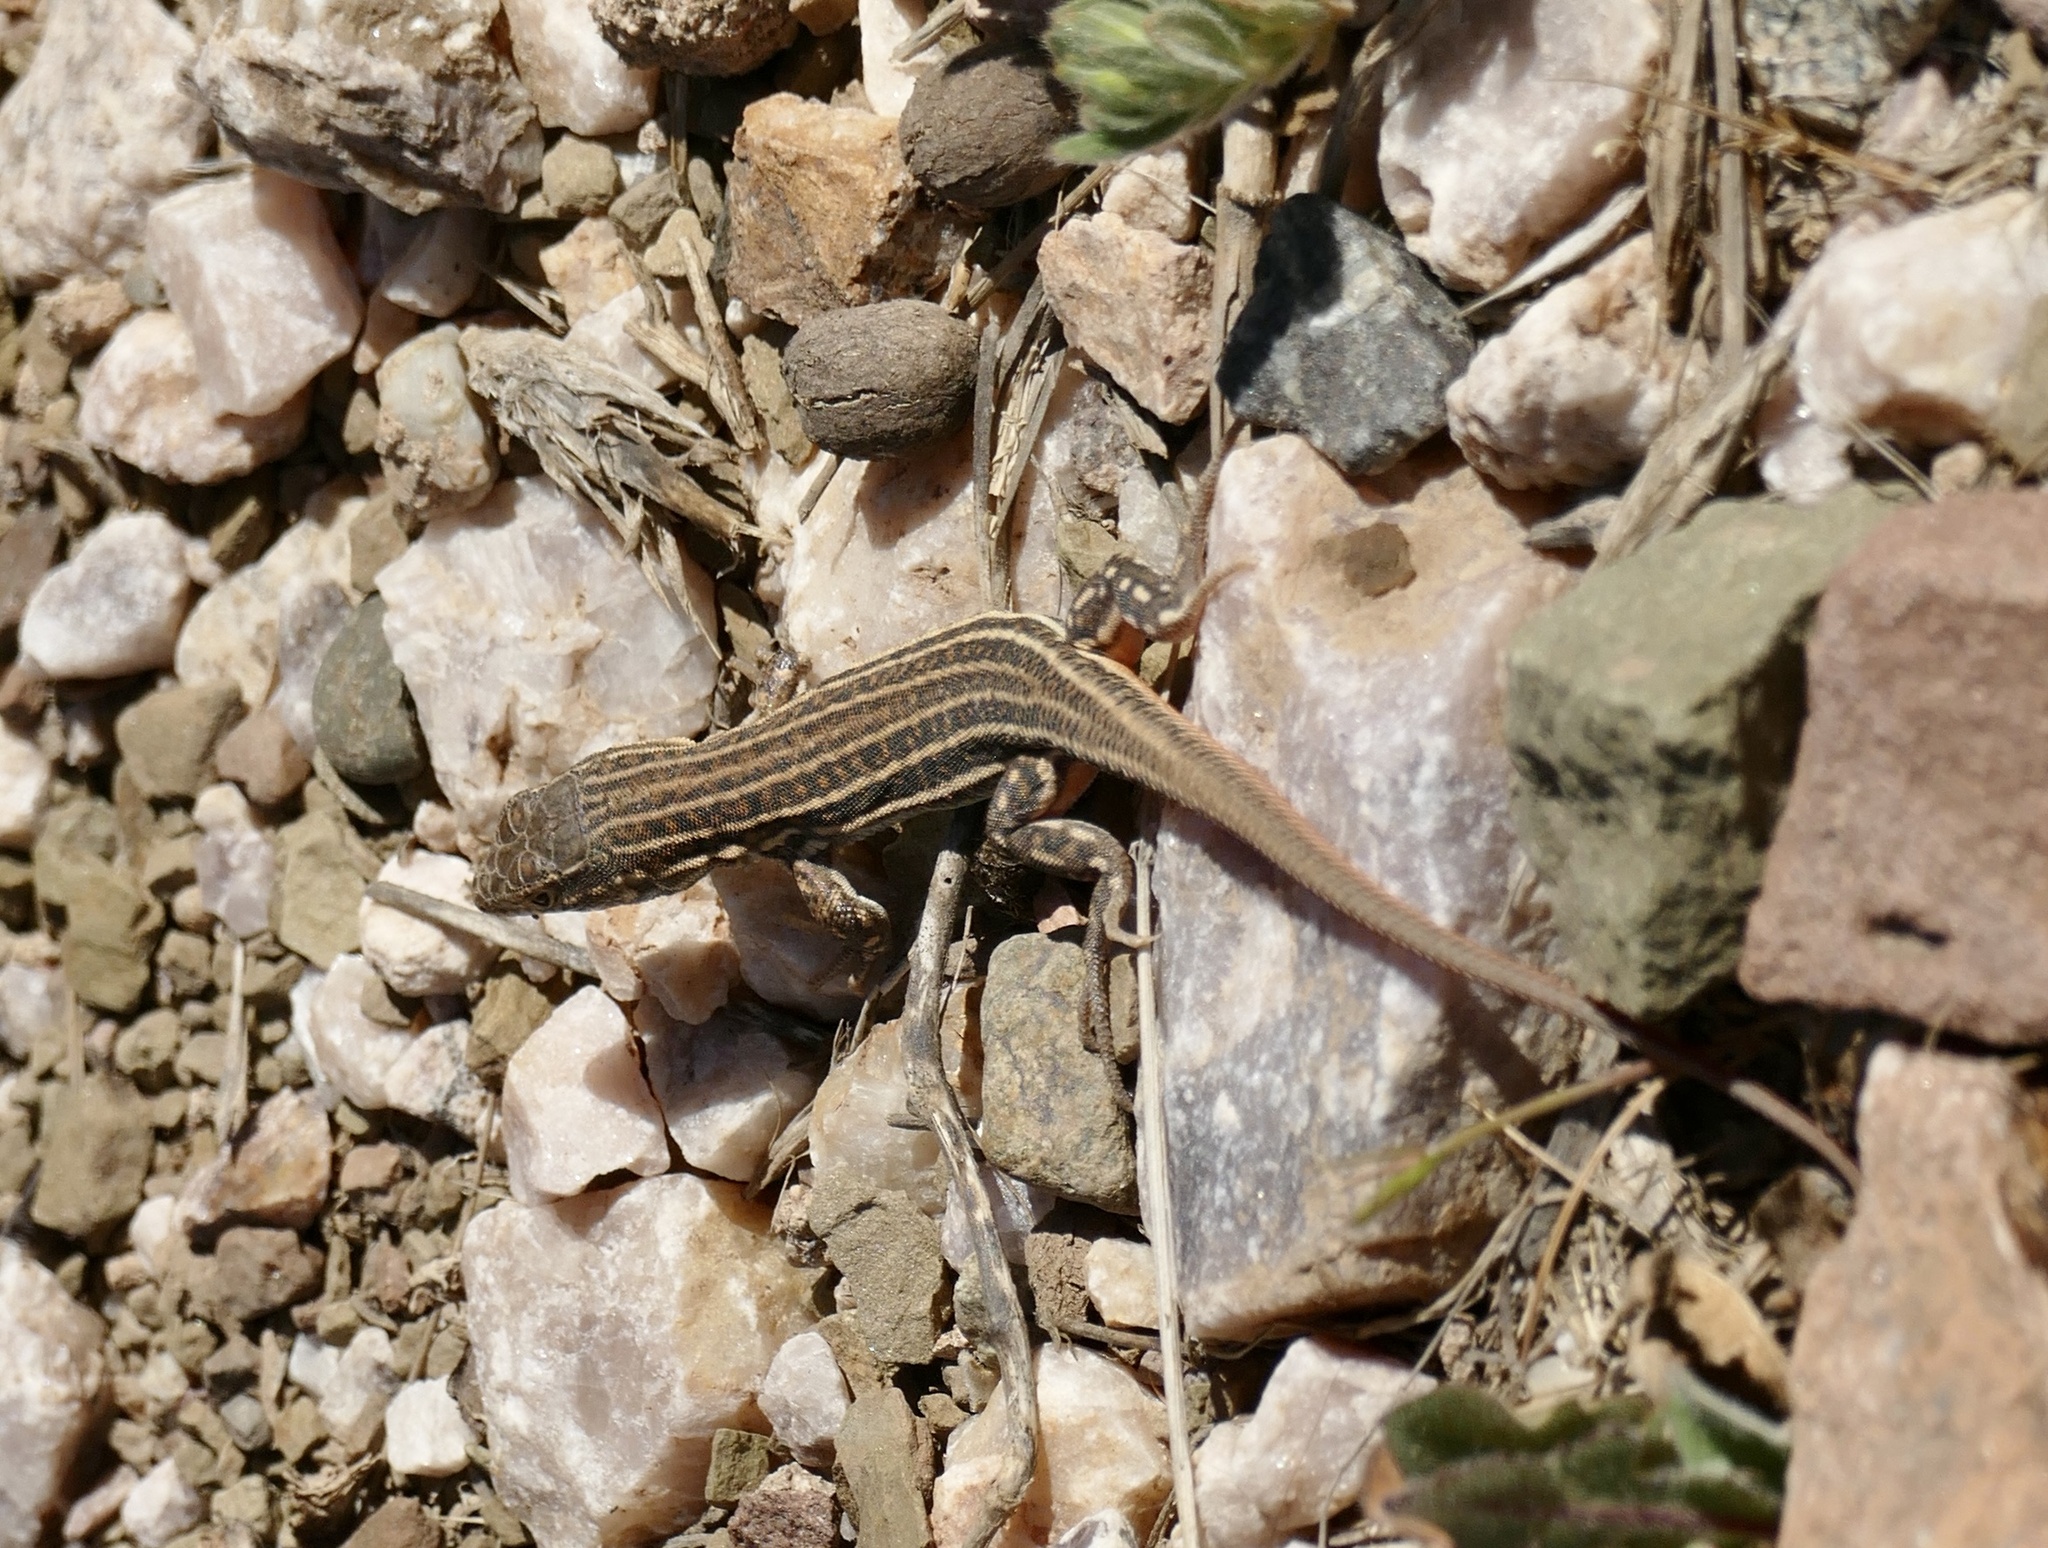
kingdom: Animalia
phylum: Chordata
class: Squamata
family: Lacertidae
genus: Acanthodactylus
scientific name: Acanthodactylus erythrurus
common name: Spiny-footed lizard
